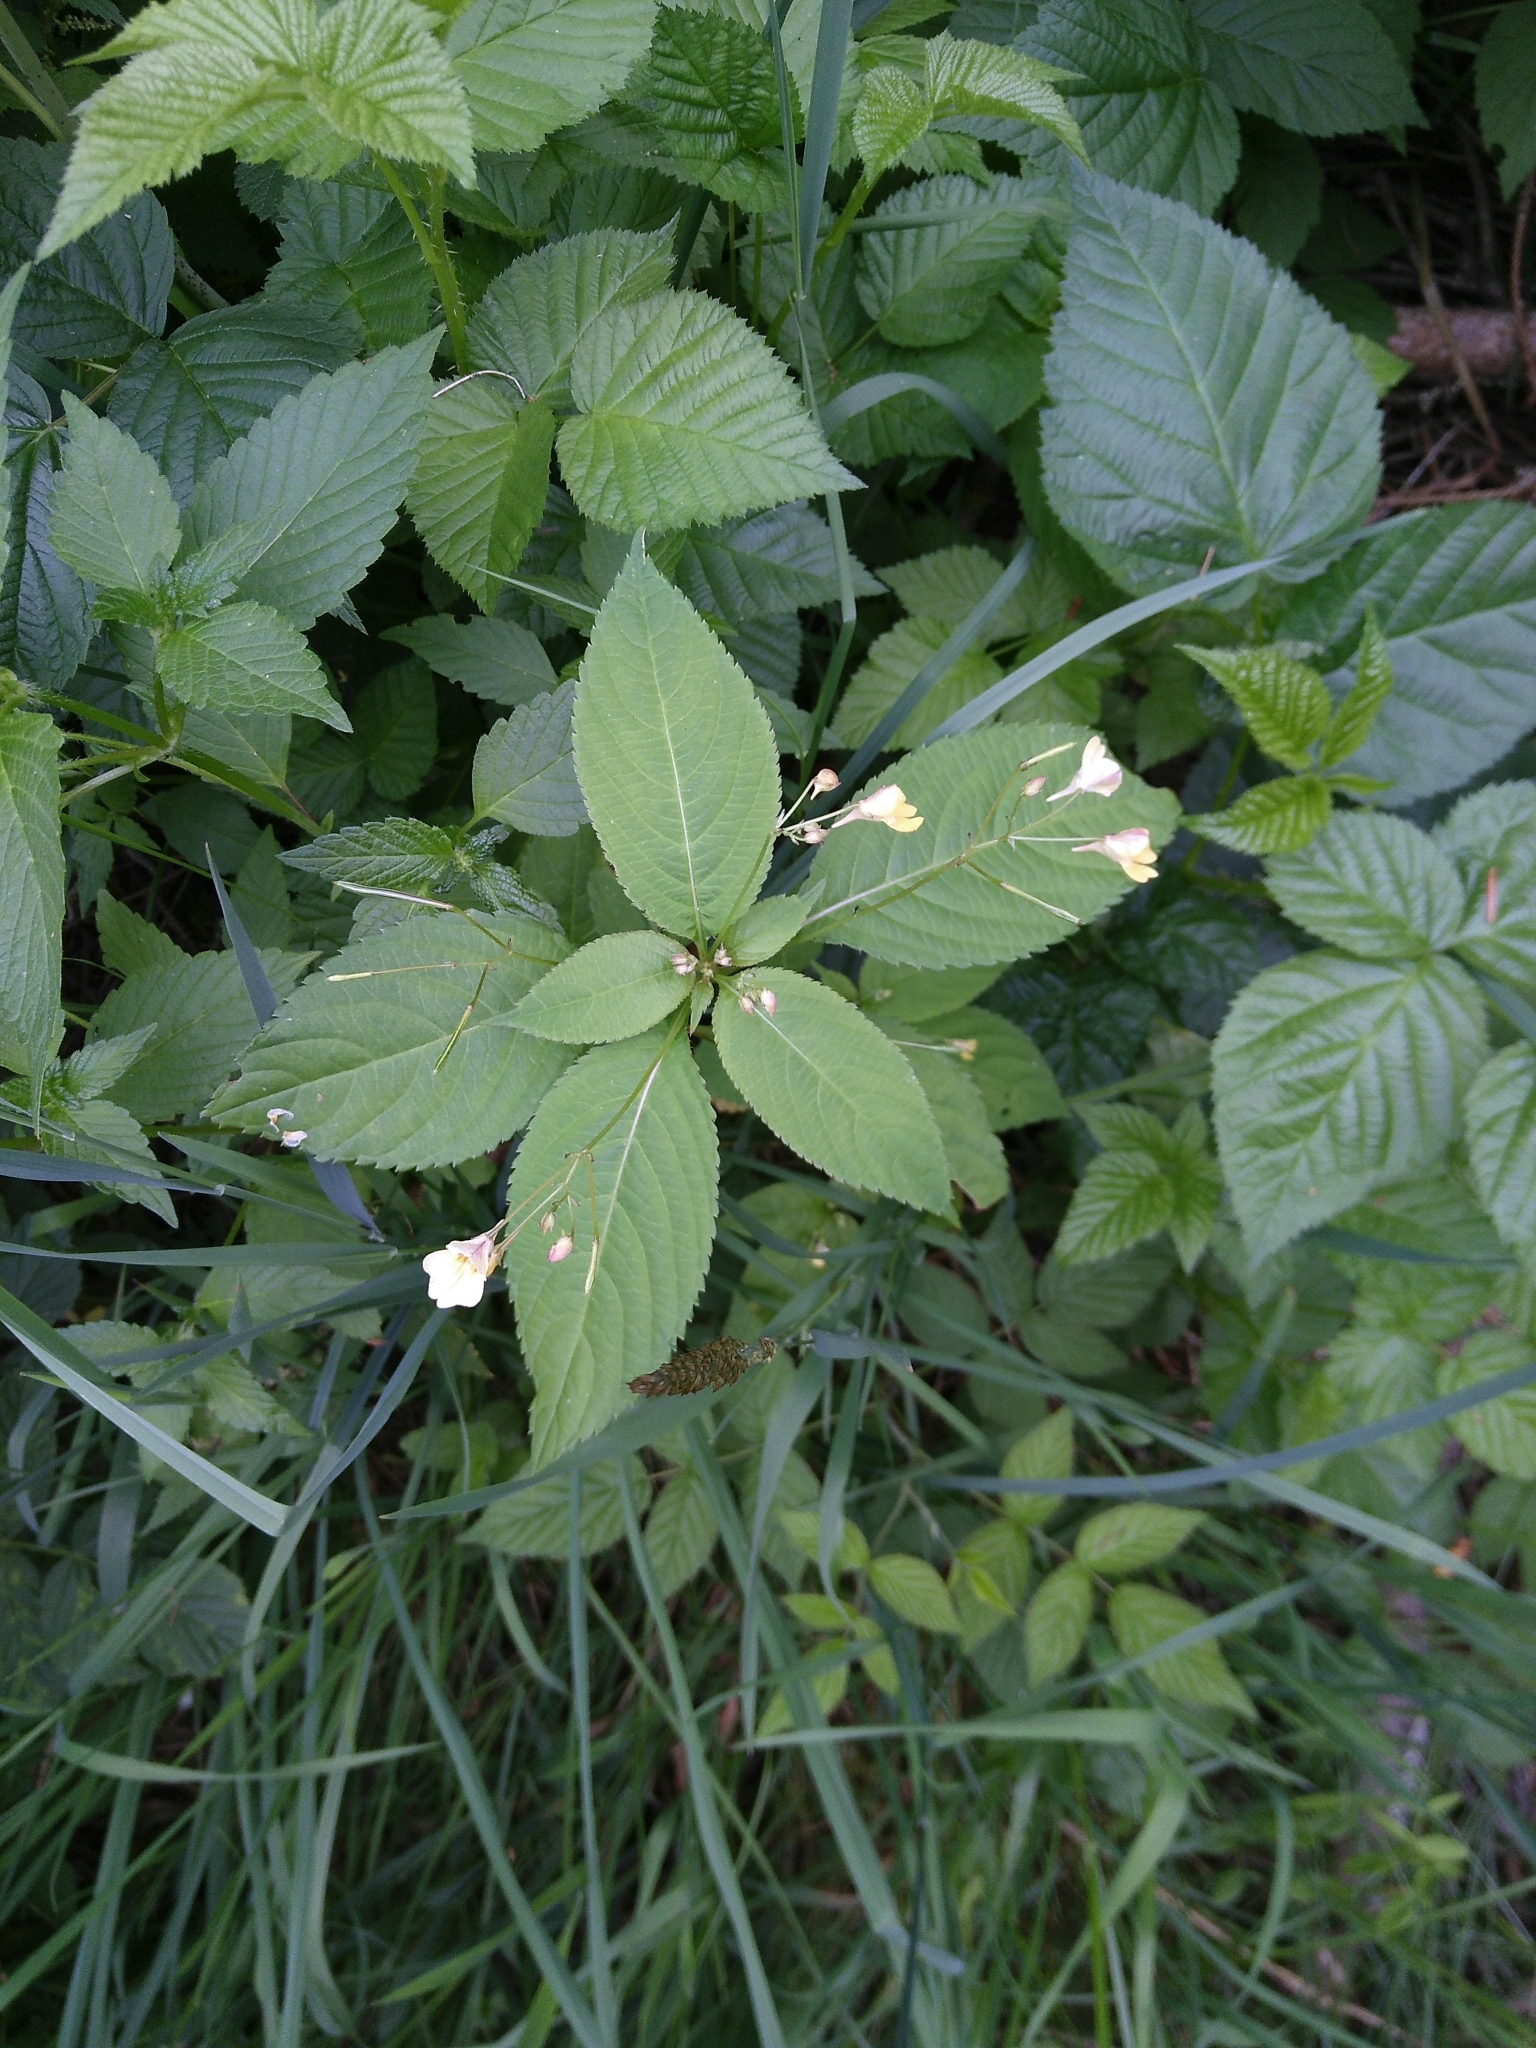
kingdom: Plantae
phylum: Tracheophyta
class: Magnoliopsida
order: Ericales
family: Balsaminaceae
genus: Impatiens
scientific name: Impatiens parviflora
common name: Small balsam
